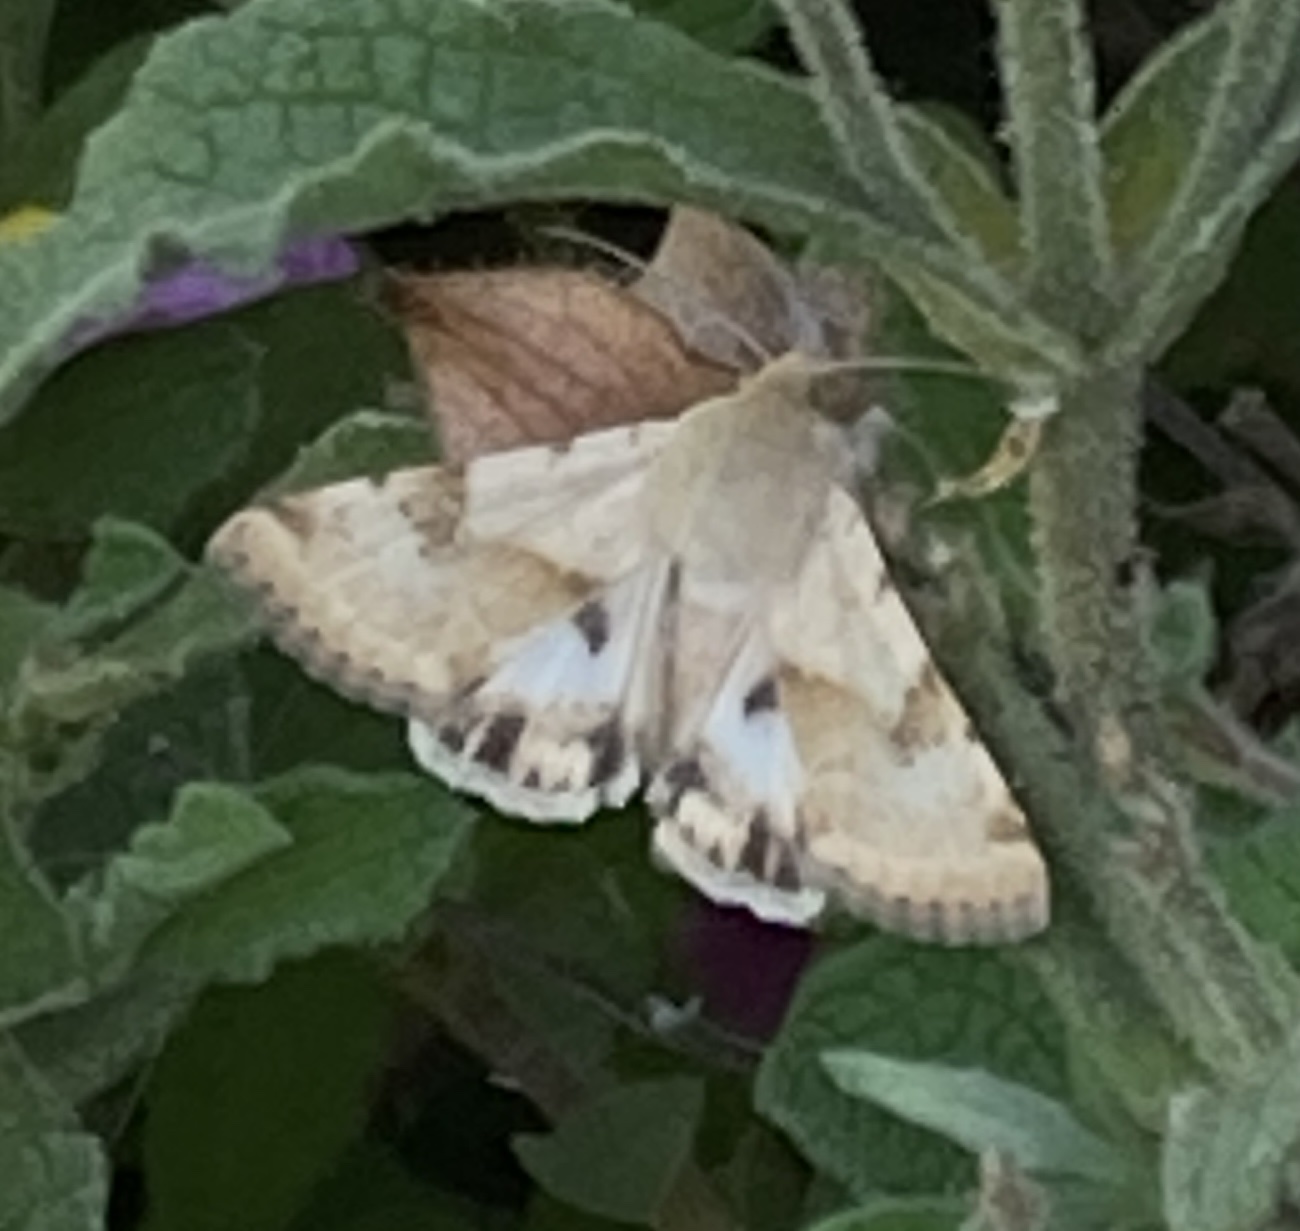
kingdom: Animalia
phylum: Arthropoda
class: Insecta
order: Lepidoptera
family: Noctuidae
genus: Heliothis
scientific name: Heliothis phloxiphaga
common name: Darker spotted straw moth
